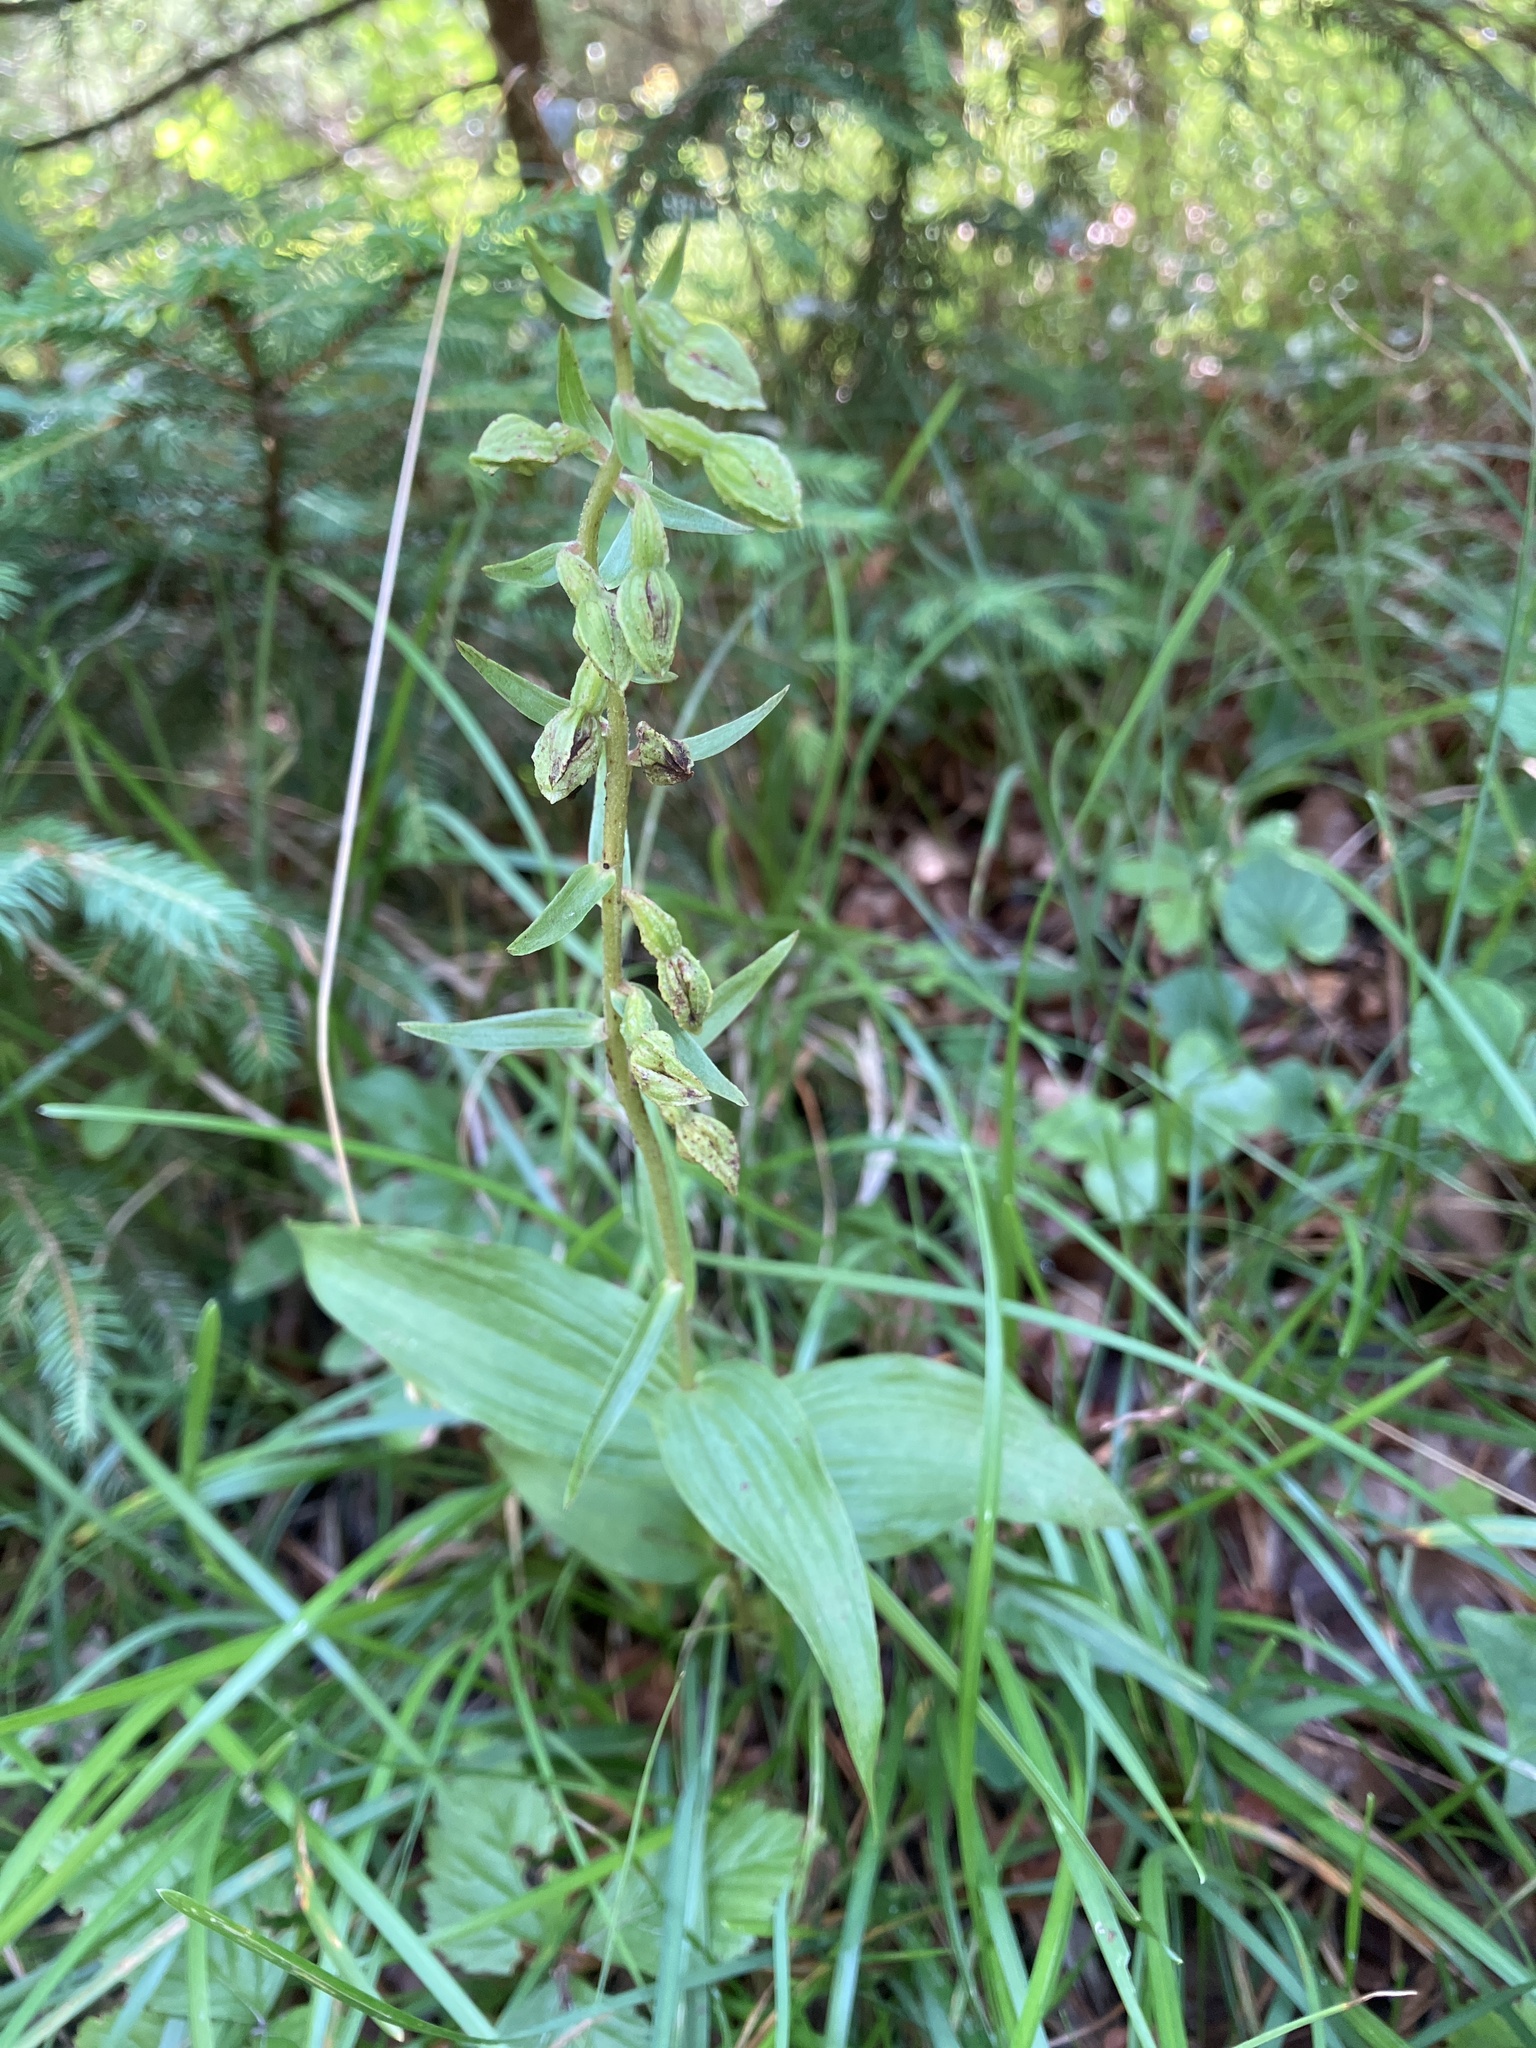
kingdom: Plantae
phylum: Tracheophyta
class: Liliopsida
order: Asparagales
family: Orchidaceae
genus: Epipactis
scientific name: Epipactis helleborine
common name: Broad-leaved helleborine
